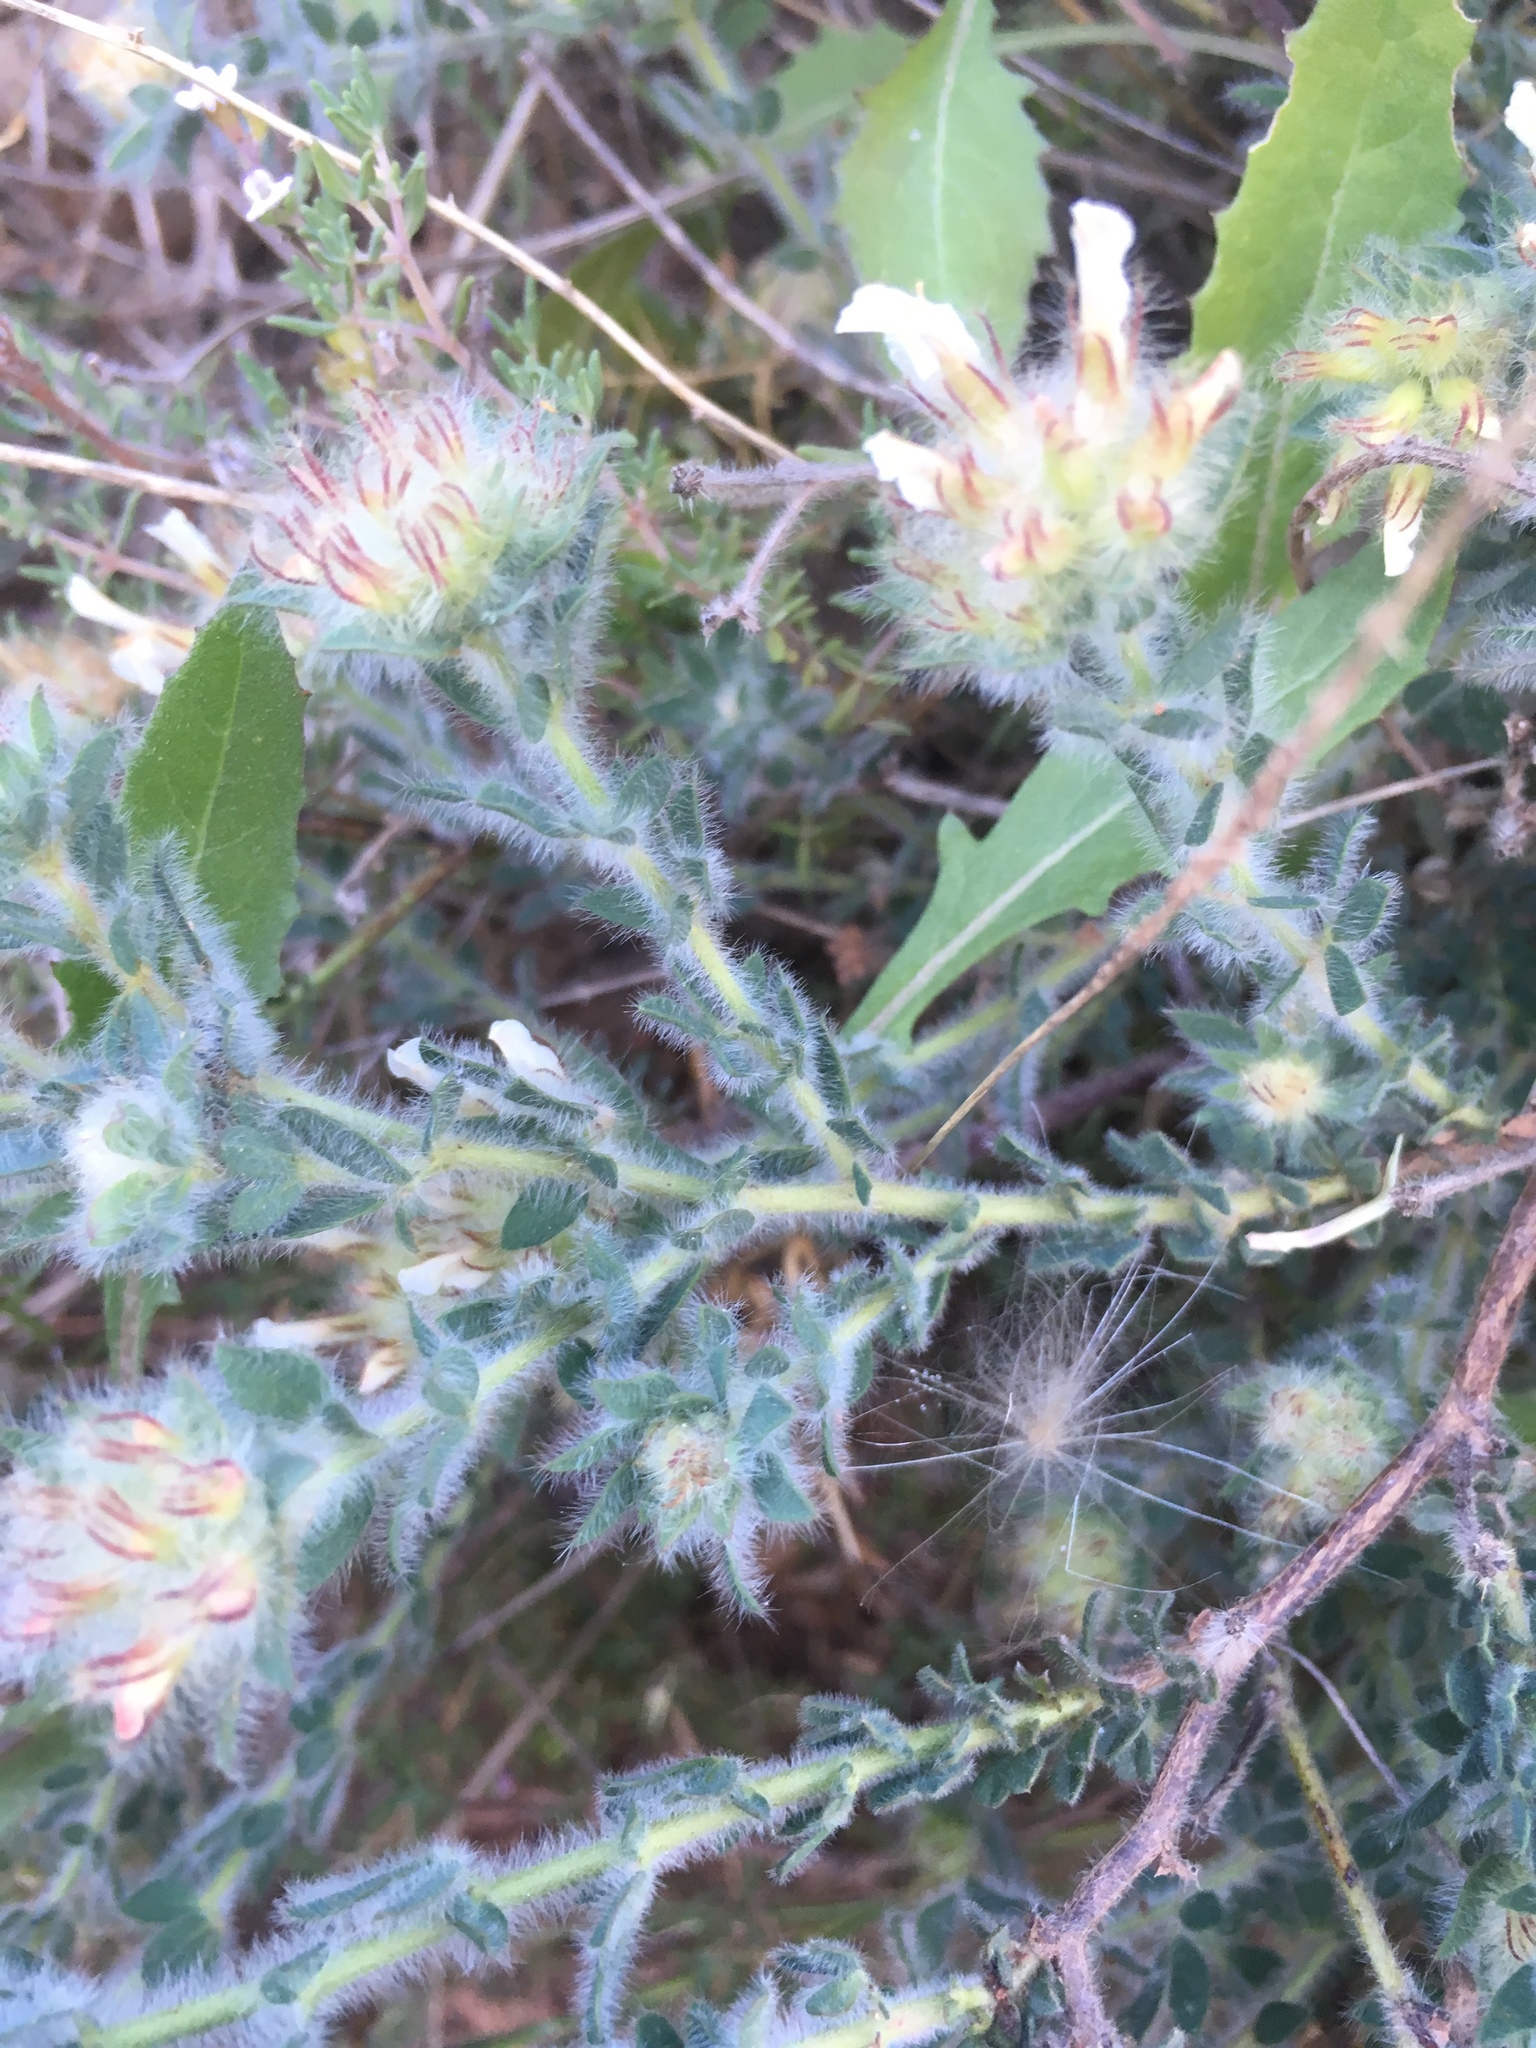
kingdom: Plantae
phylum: Tracheophyta
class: Magnoliopsida
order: Fabales
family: Fabaceae
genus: Lotus
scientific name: Lotus hirsutus
